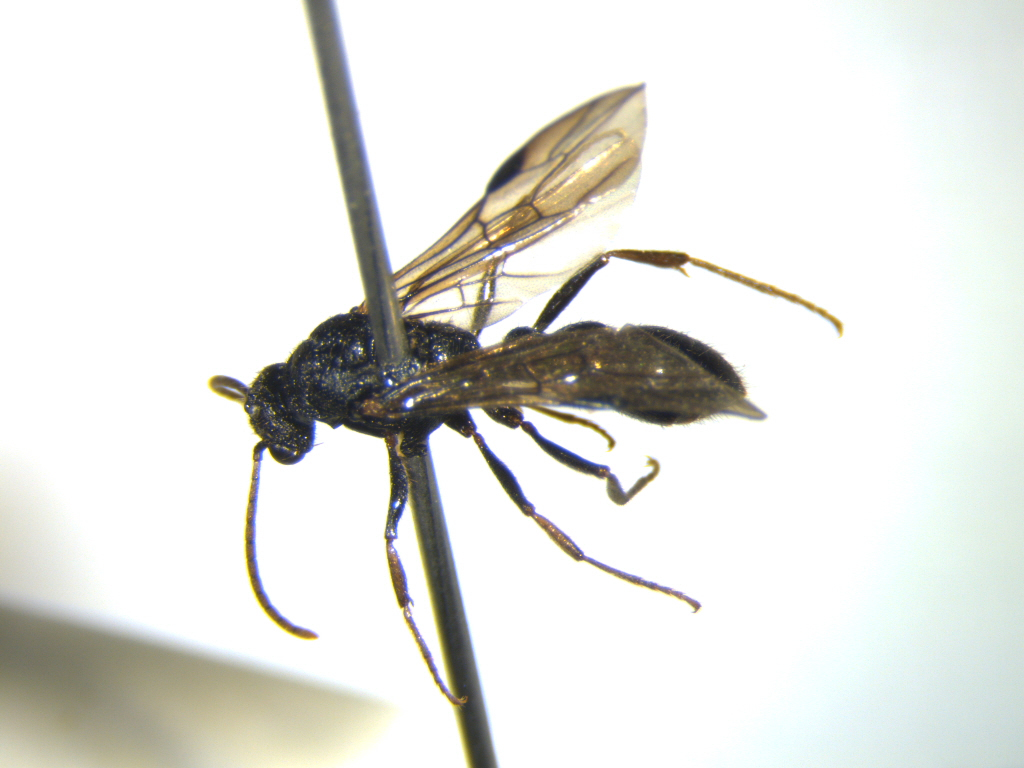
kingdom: Animalia
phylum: Arthropoda
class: Insecta
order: Hymenoptera
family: Formicidae
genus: Amblyopone
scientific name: Amblyopone australis
